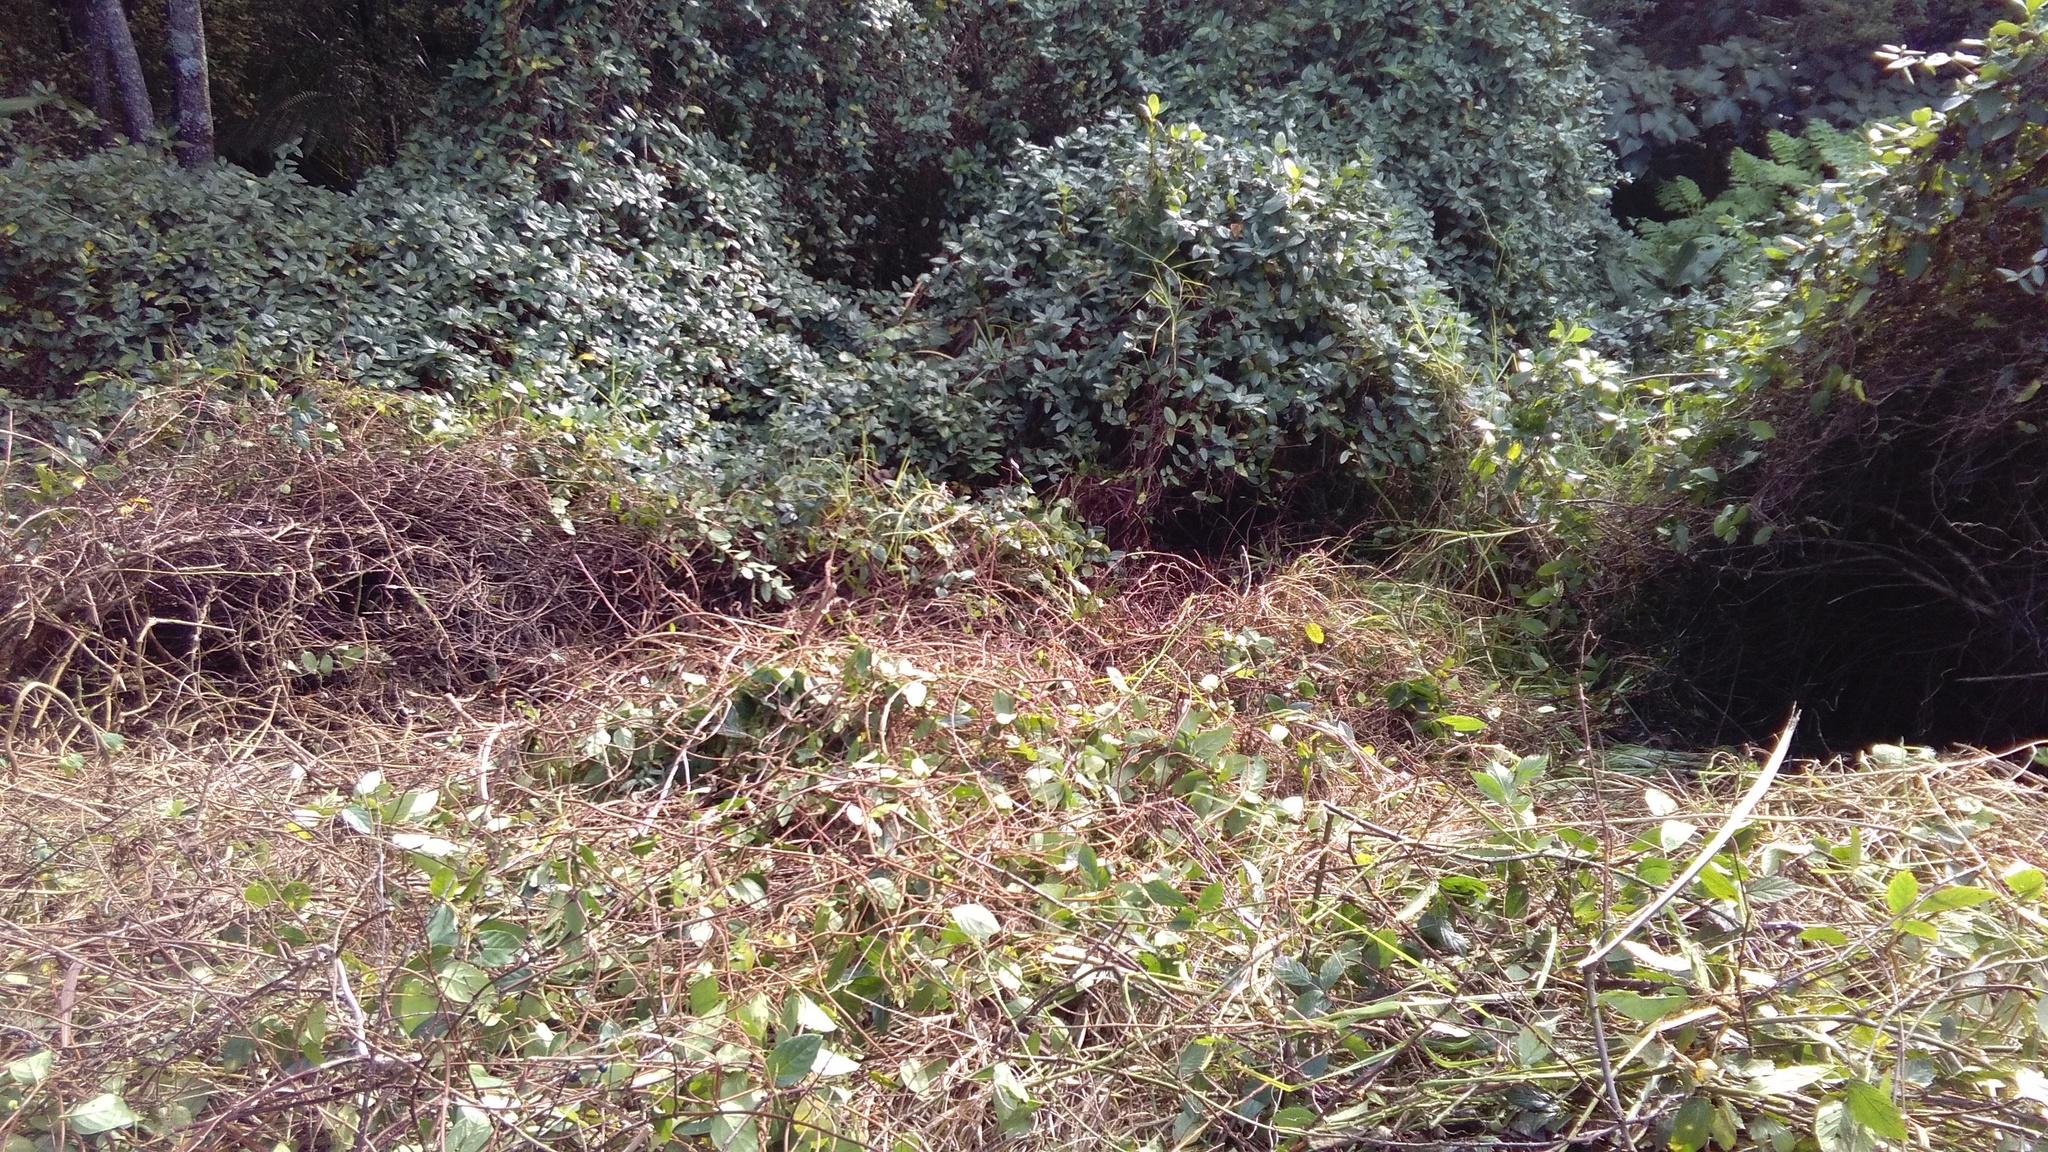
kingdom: Plantae
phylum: Tracheophyta
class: Magnoliopsida
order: Dipsacales
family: Caprifoliaceae
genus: Lonicera
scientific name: Lonicera japonica
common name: Japanese honeysuckle
